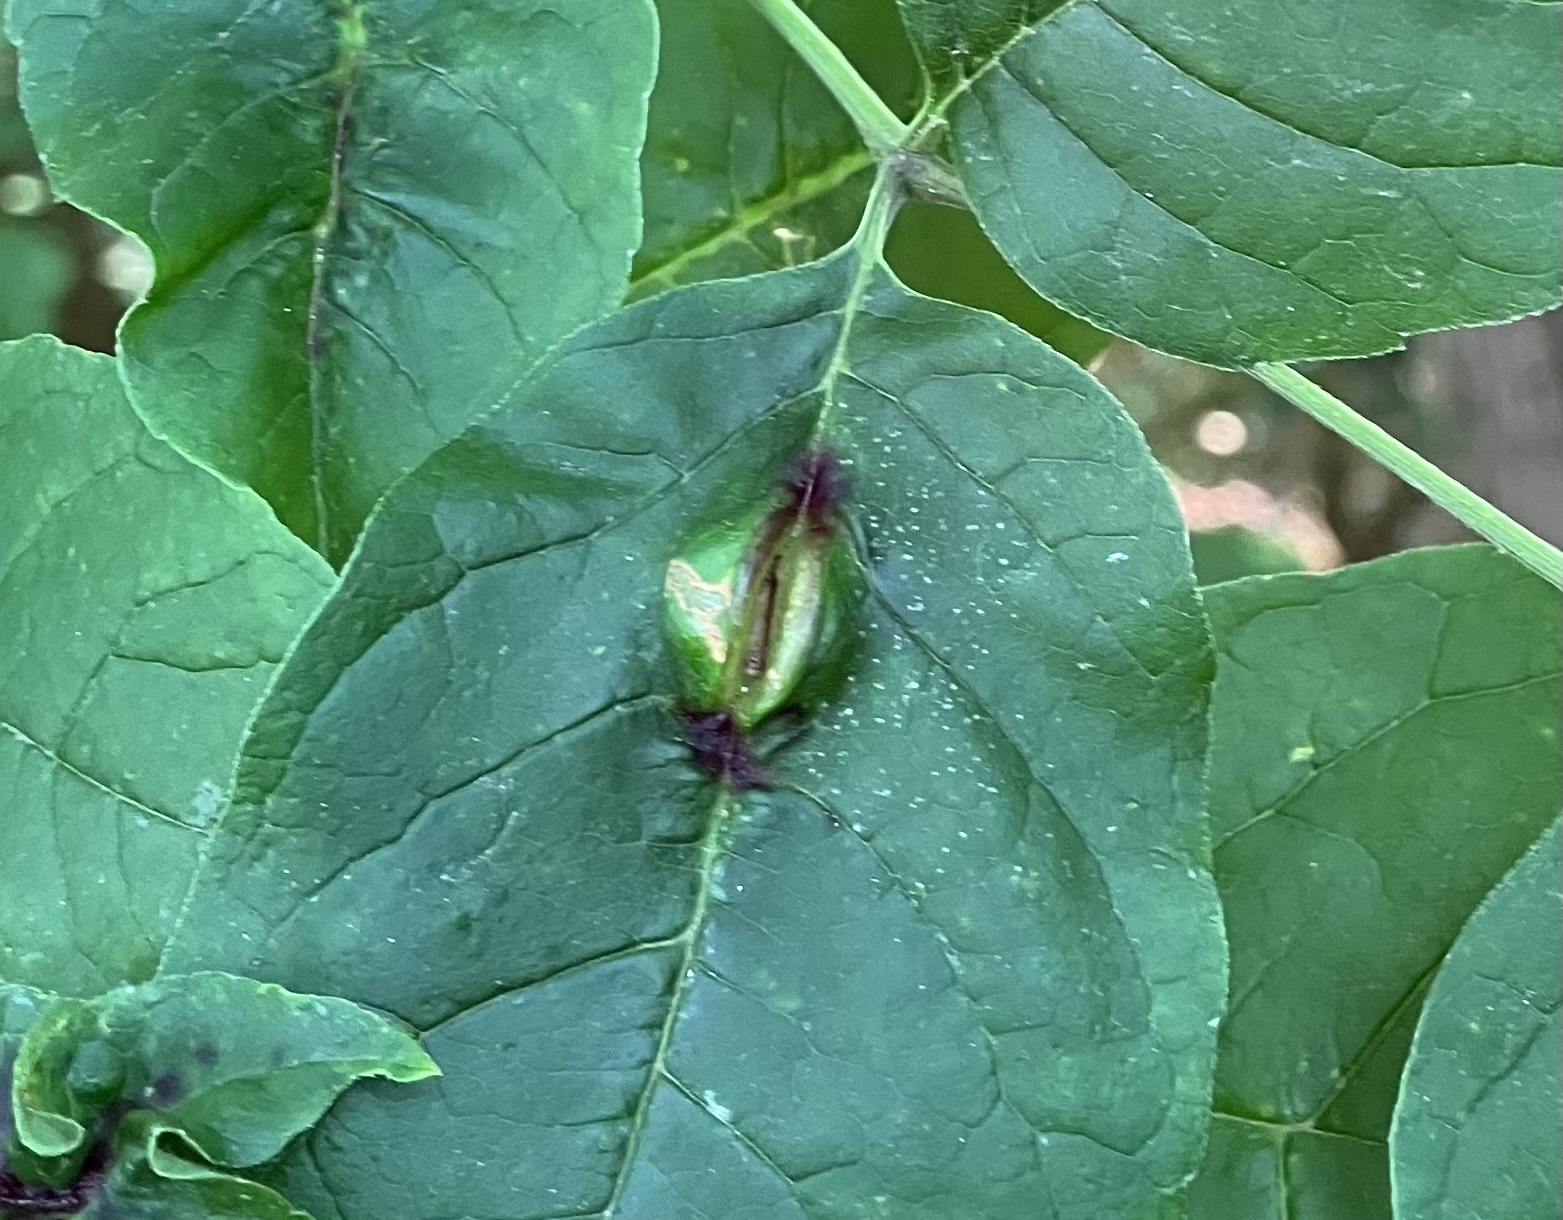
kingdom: Animalia
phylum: Arthropoda
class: Insecta
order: Diptera
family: Cecidomyiidae
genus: Dasineura
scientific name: Dasineura tumidosae
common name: Ash petiole gall midge
